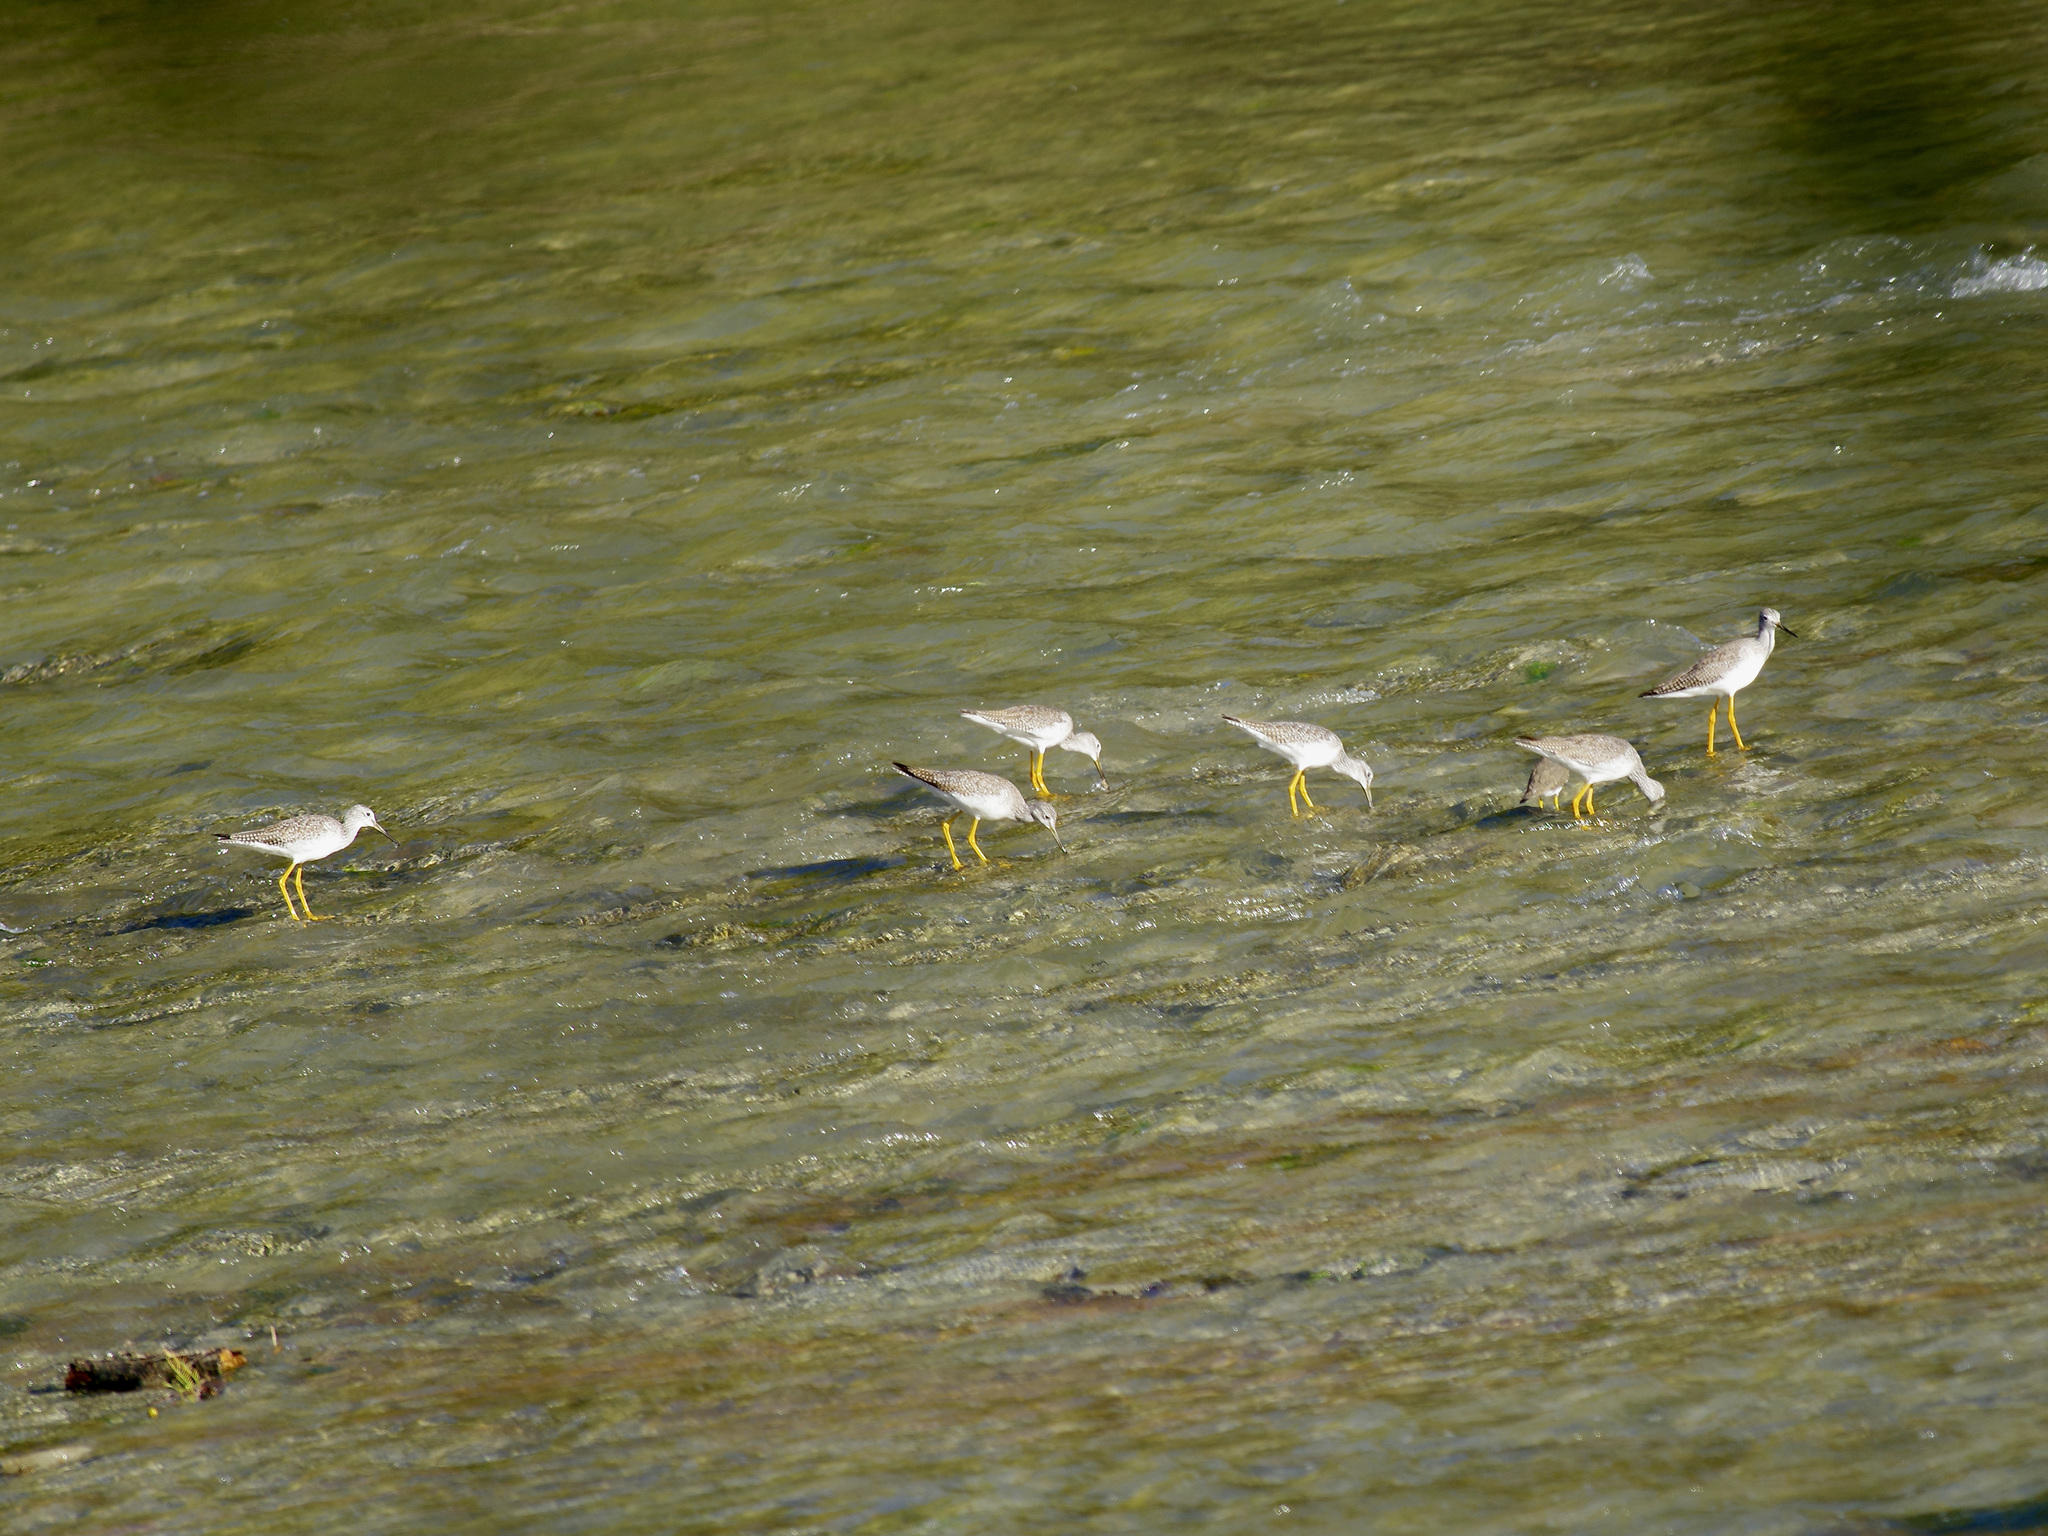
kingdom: Animalia
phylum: Chordata
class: Aves
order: Charadriiformes
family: Scolopacidae
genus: Tringa
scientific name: Tringa melanoleuca
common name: Greater yellowlegs
